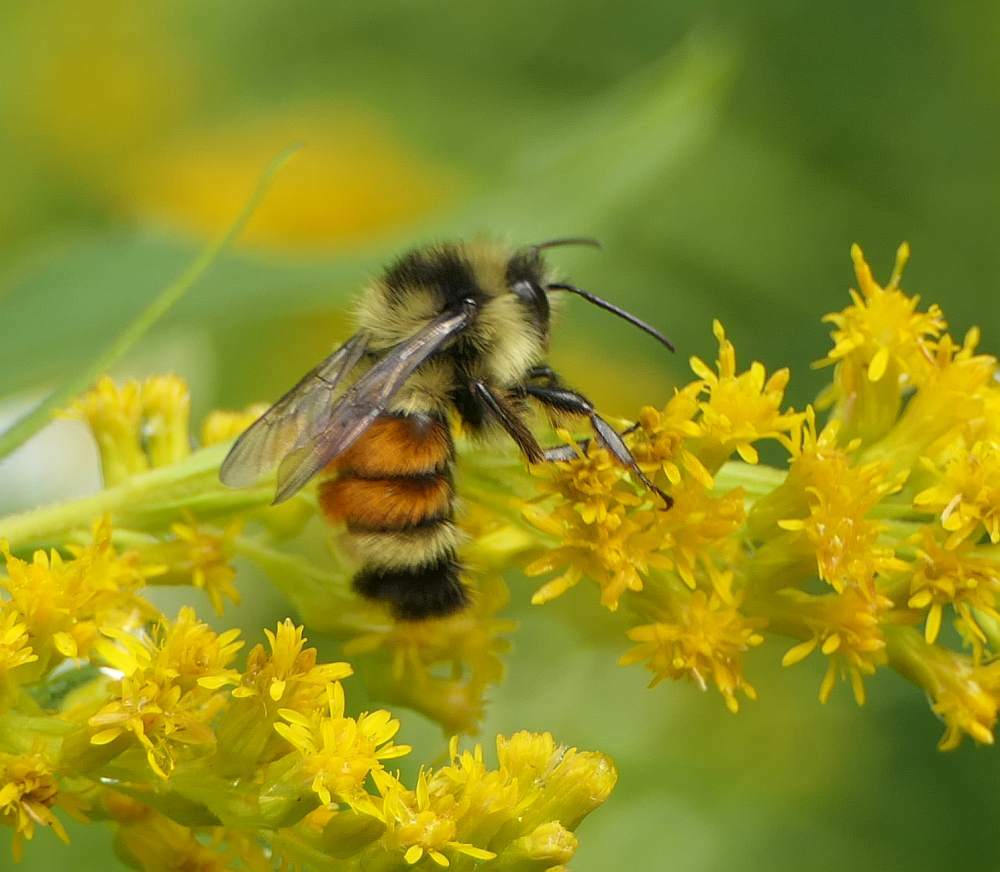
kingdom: Animalia
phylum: Arthropoda
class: Insecta
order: Hymenoptera
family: Apidae
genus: Bombus
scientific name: Bombus ternarius
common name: Tri-colored bumble bee
